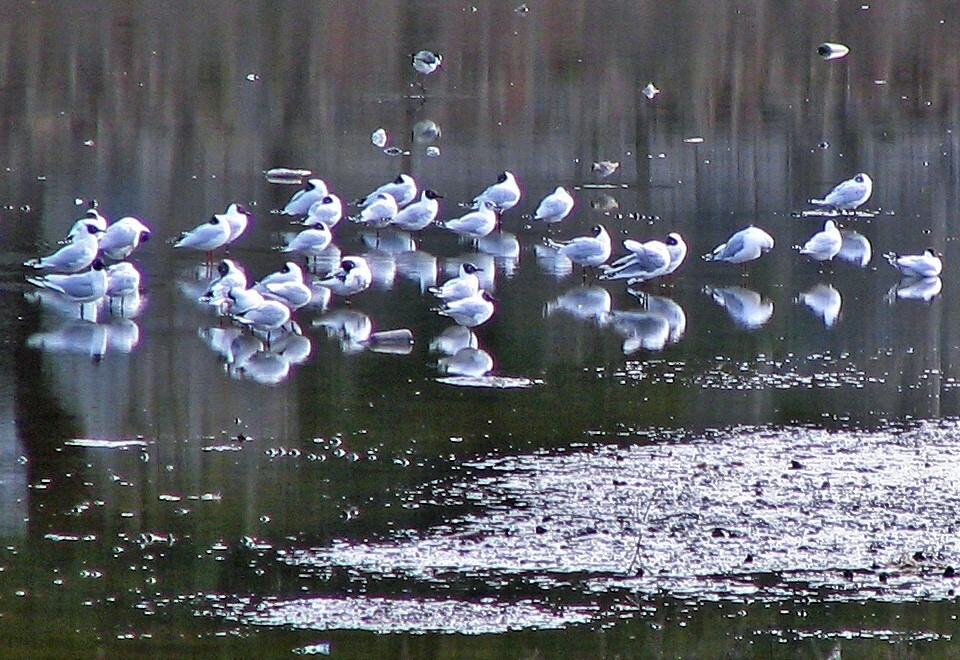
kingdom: Animalia
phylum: Chordata
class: Aves
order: Charadriiformes
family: Laridae
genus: Chroicocephalus
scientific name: Chroicocephalus maculipennis
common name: Brown-hooded gull
